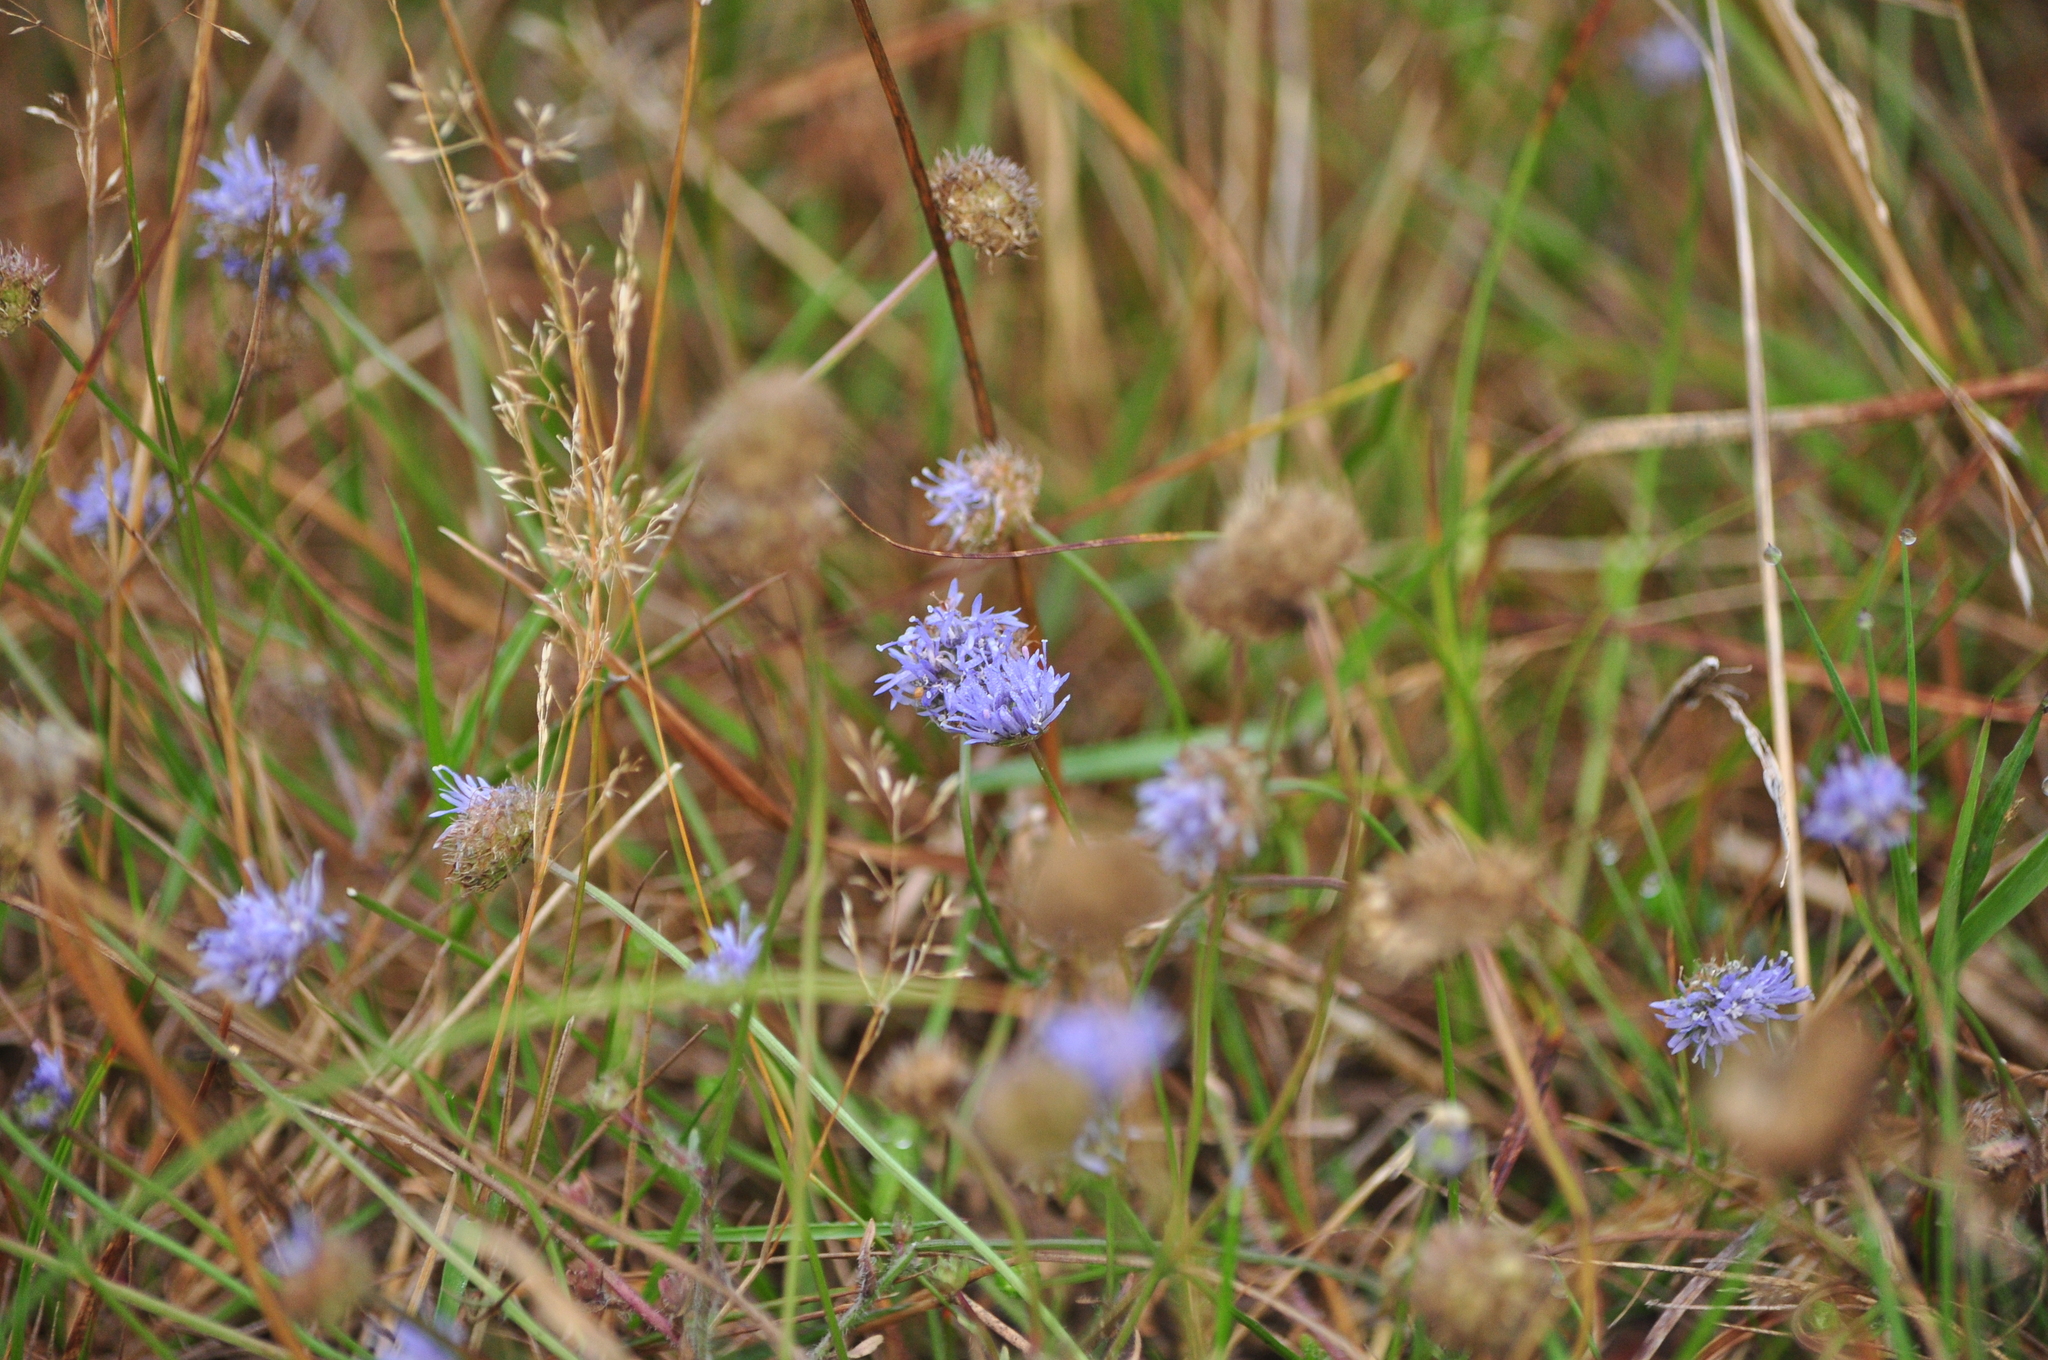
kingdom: Plantae
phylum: Tracheophyta
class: Magnoliopsida
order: Asterales
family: Campanulaceae
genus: Jasione
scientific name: Jasione montana
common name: Sheep's-bit
